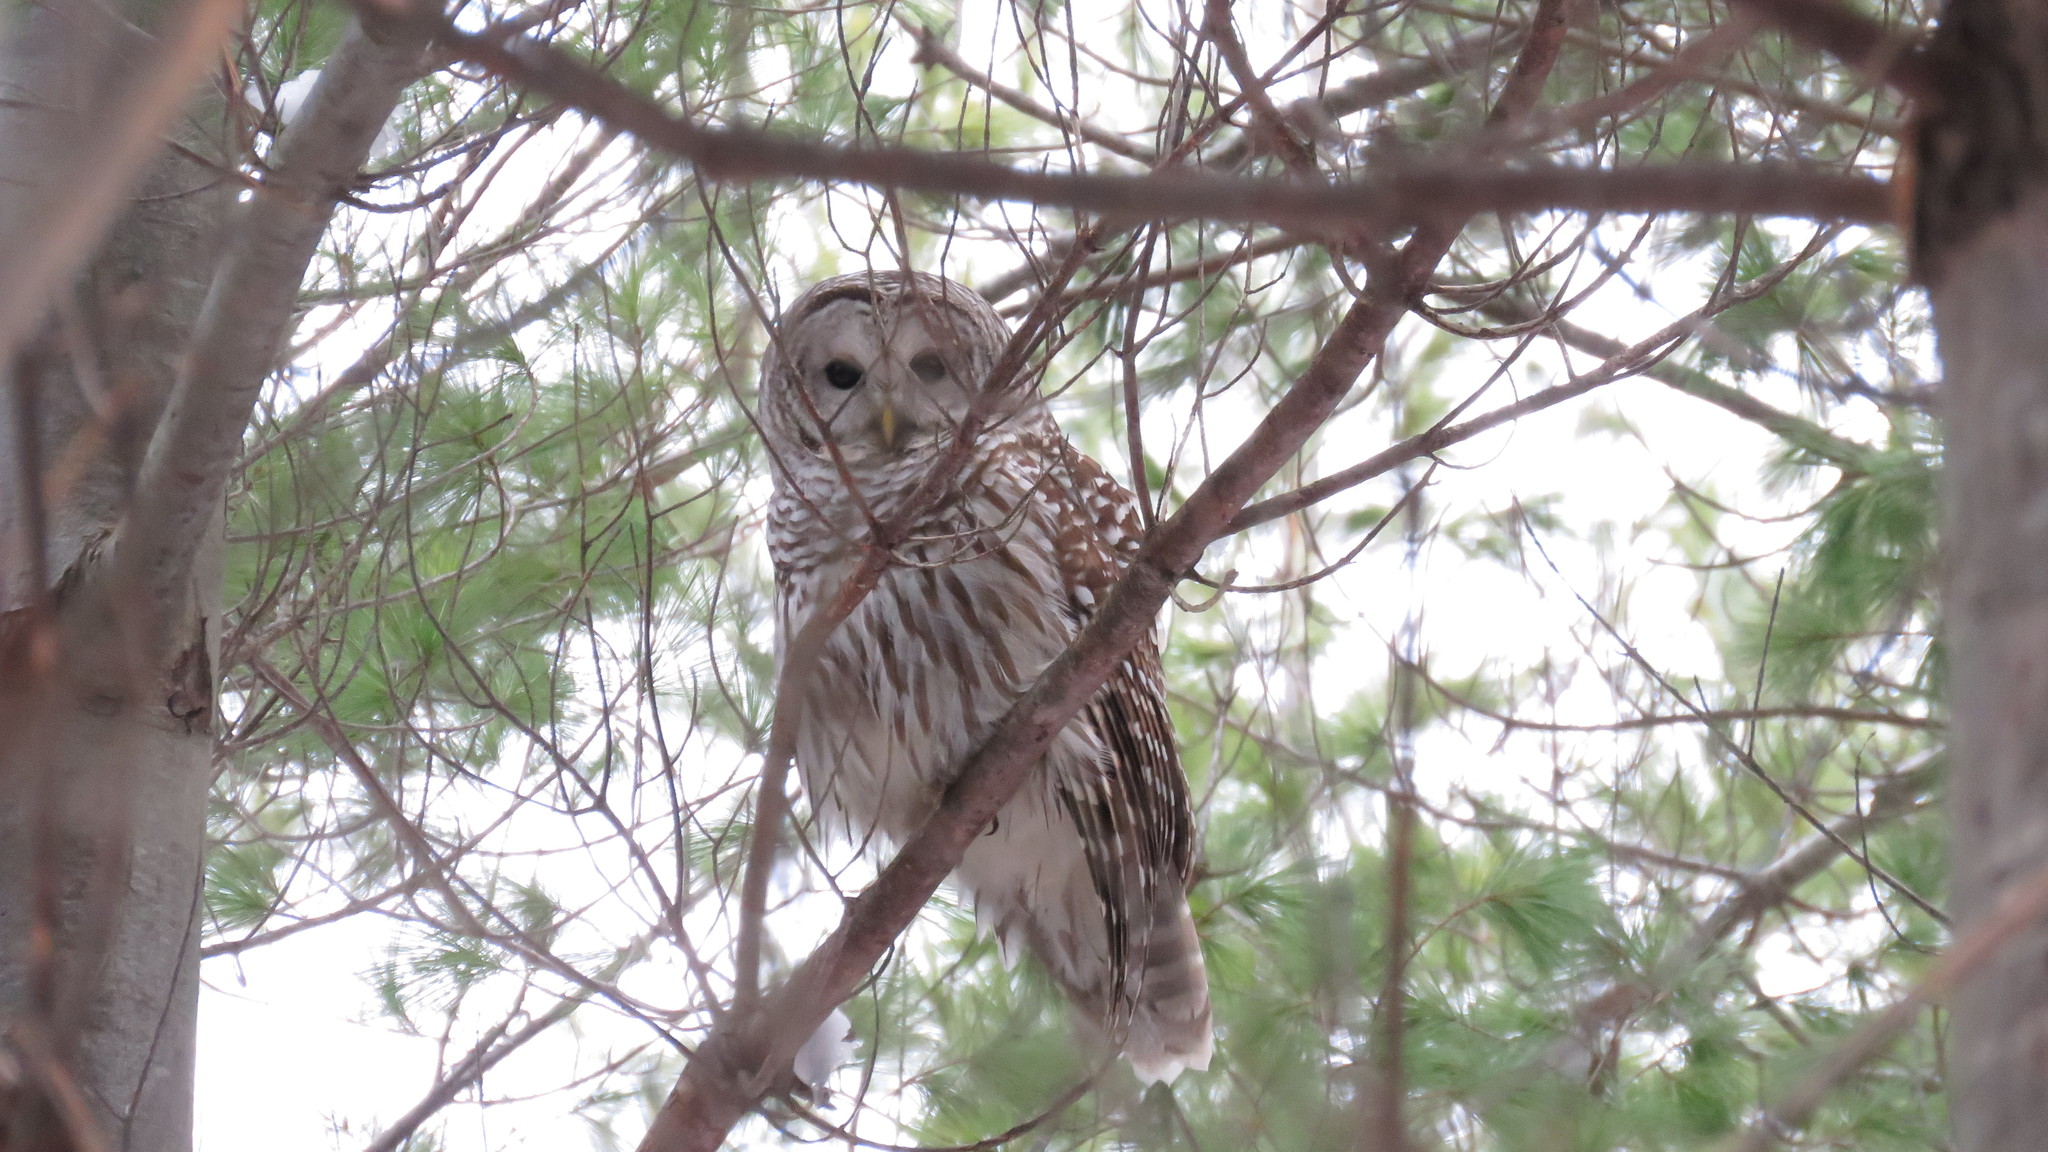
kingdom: Animalia
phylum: Chordata
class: Aves
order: Strigiformes
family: Strigidae
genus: Strix
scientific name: Strix varia
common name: Barred owl
